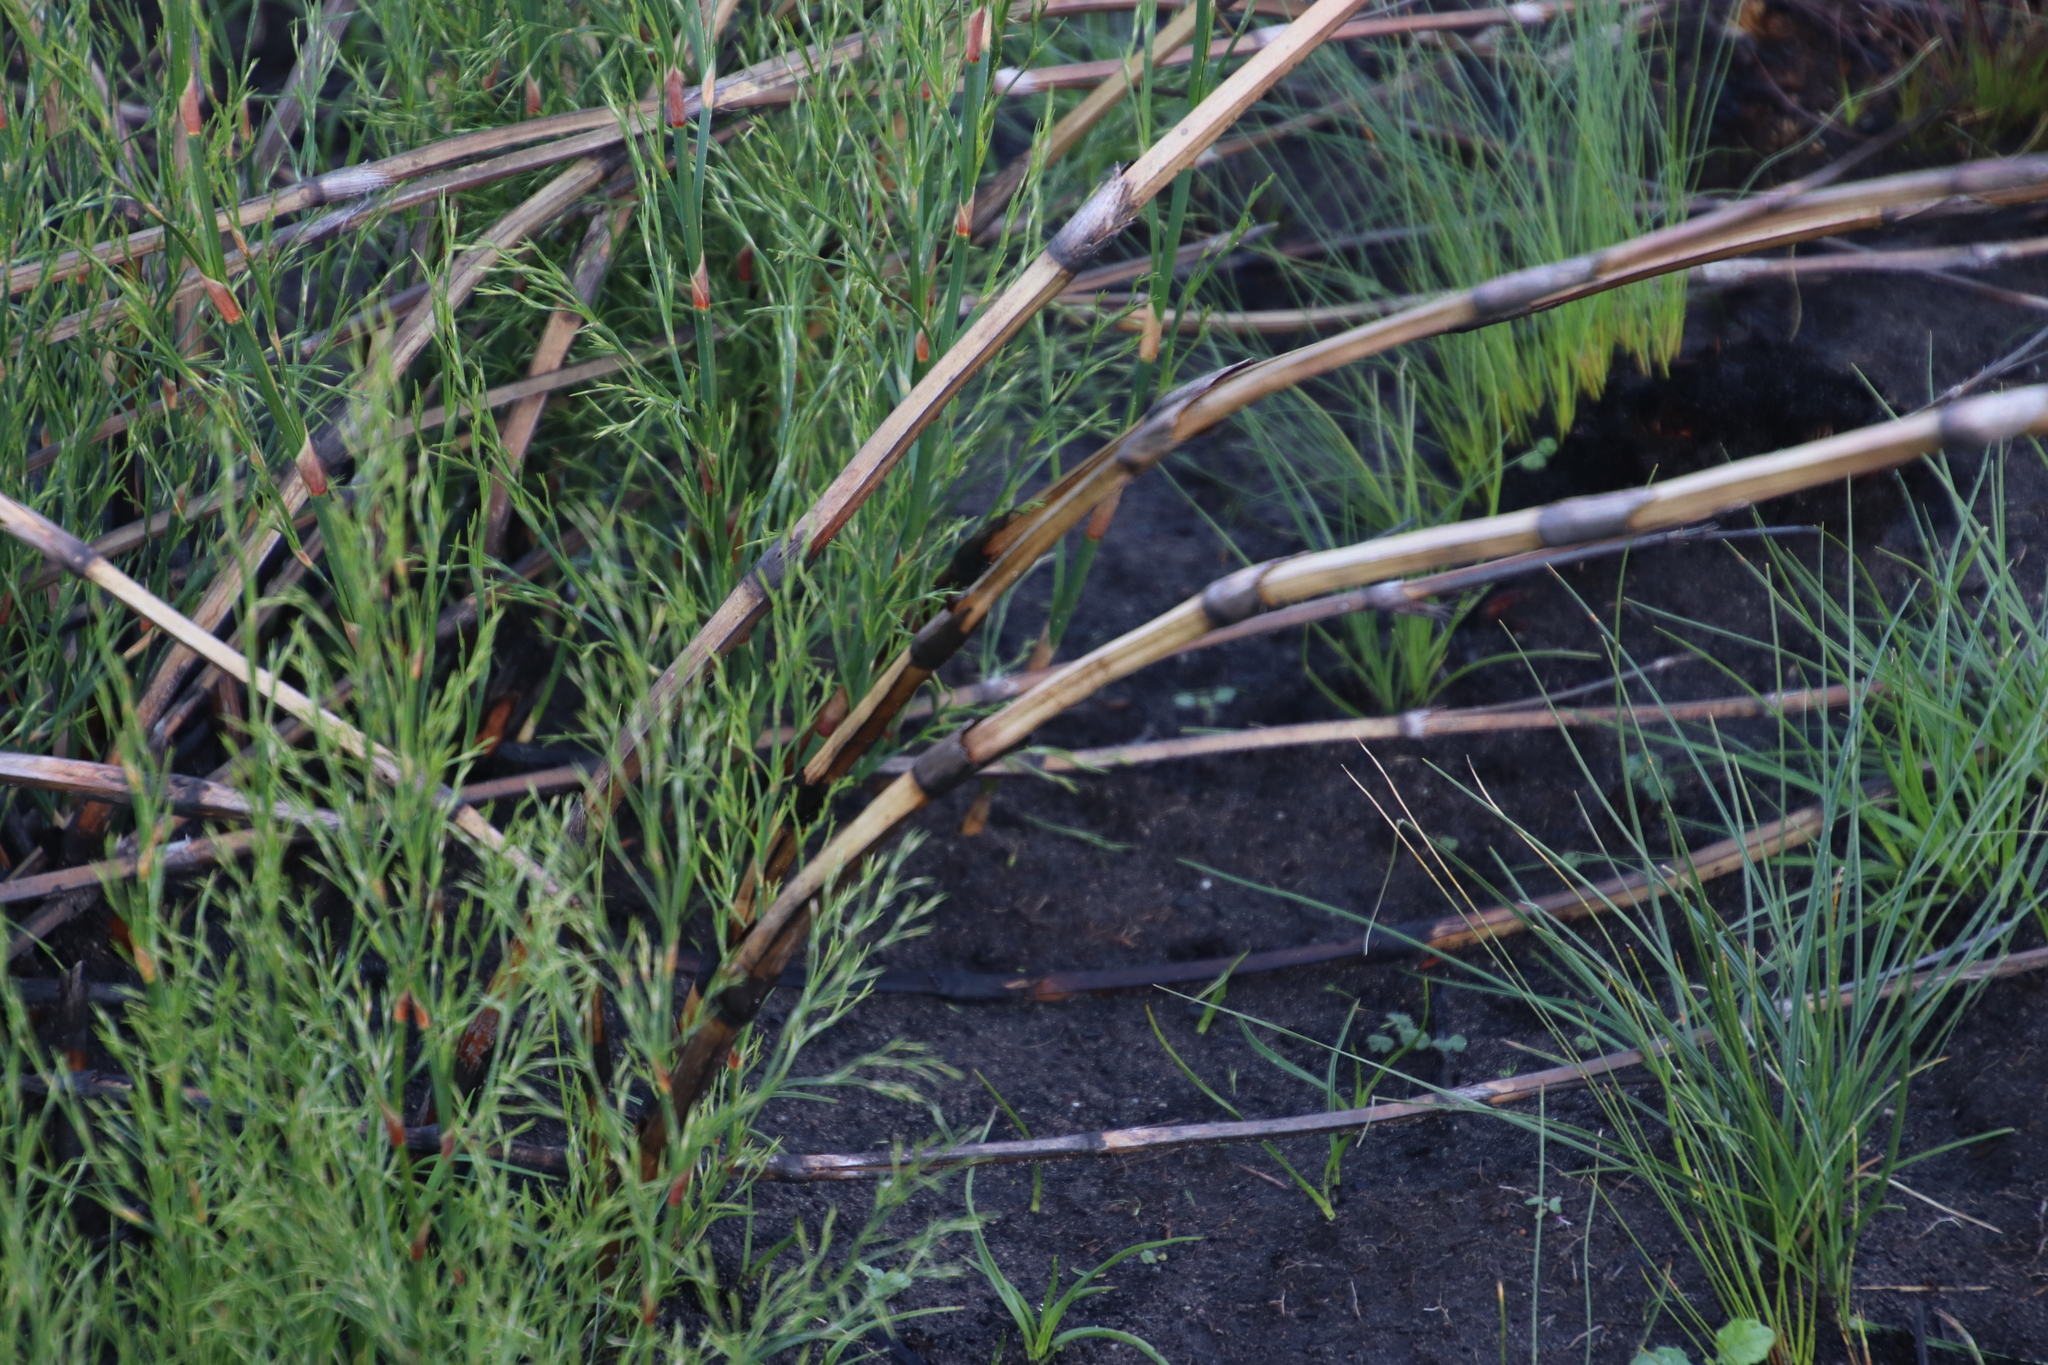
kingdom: Plantae
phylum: Tracheophyta
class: Liliopsida
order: Poales
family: Restionaceae
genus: Restio
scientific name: Restio tetragonus
